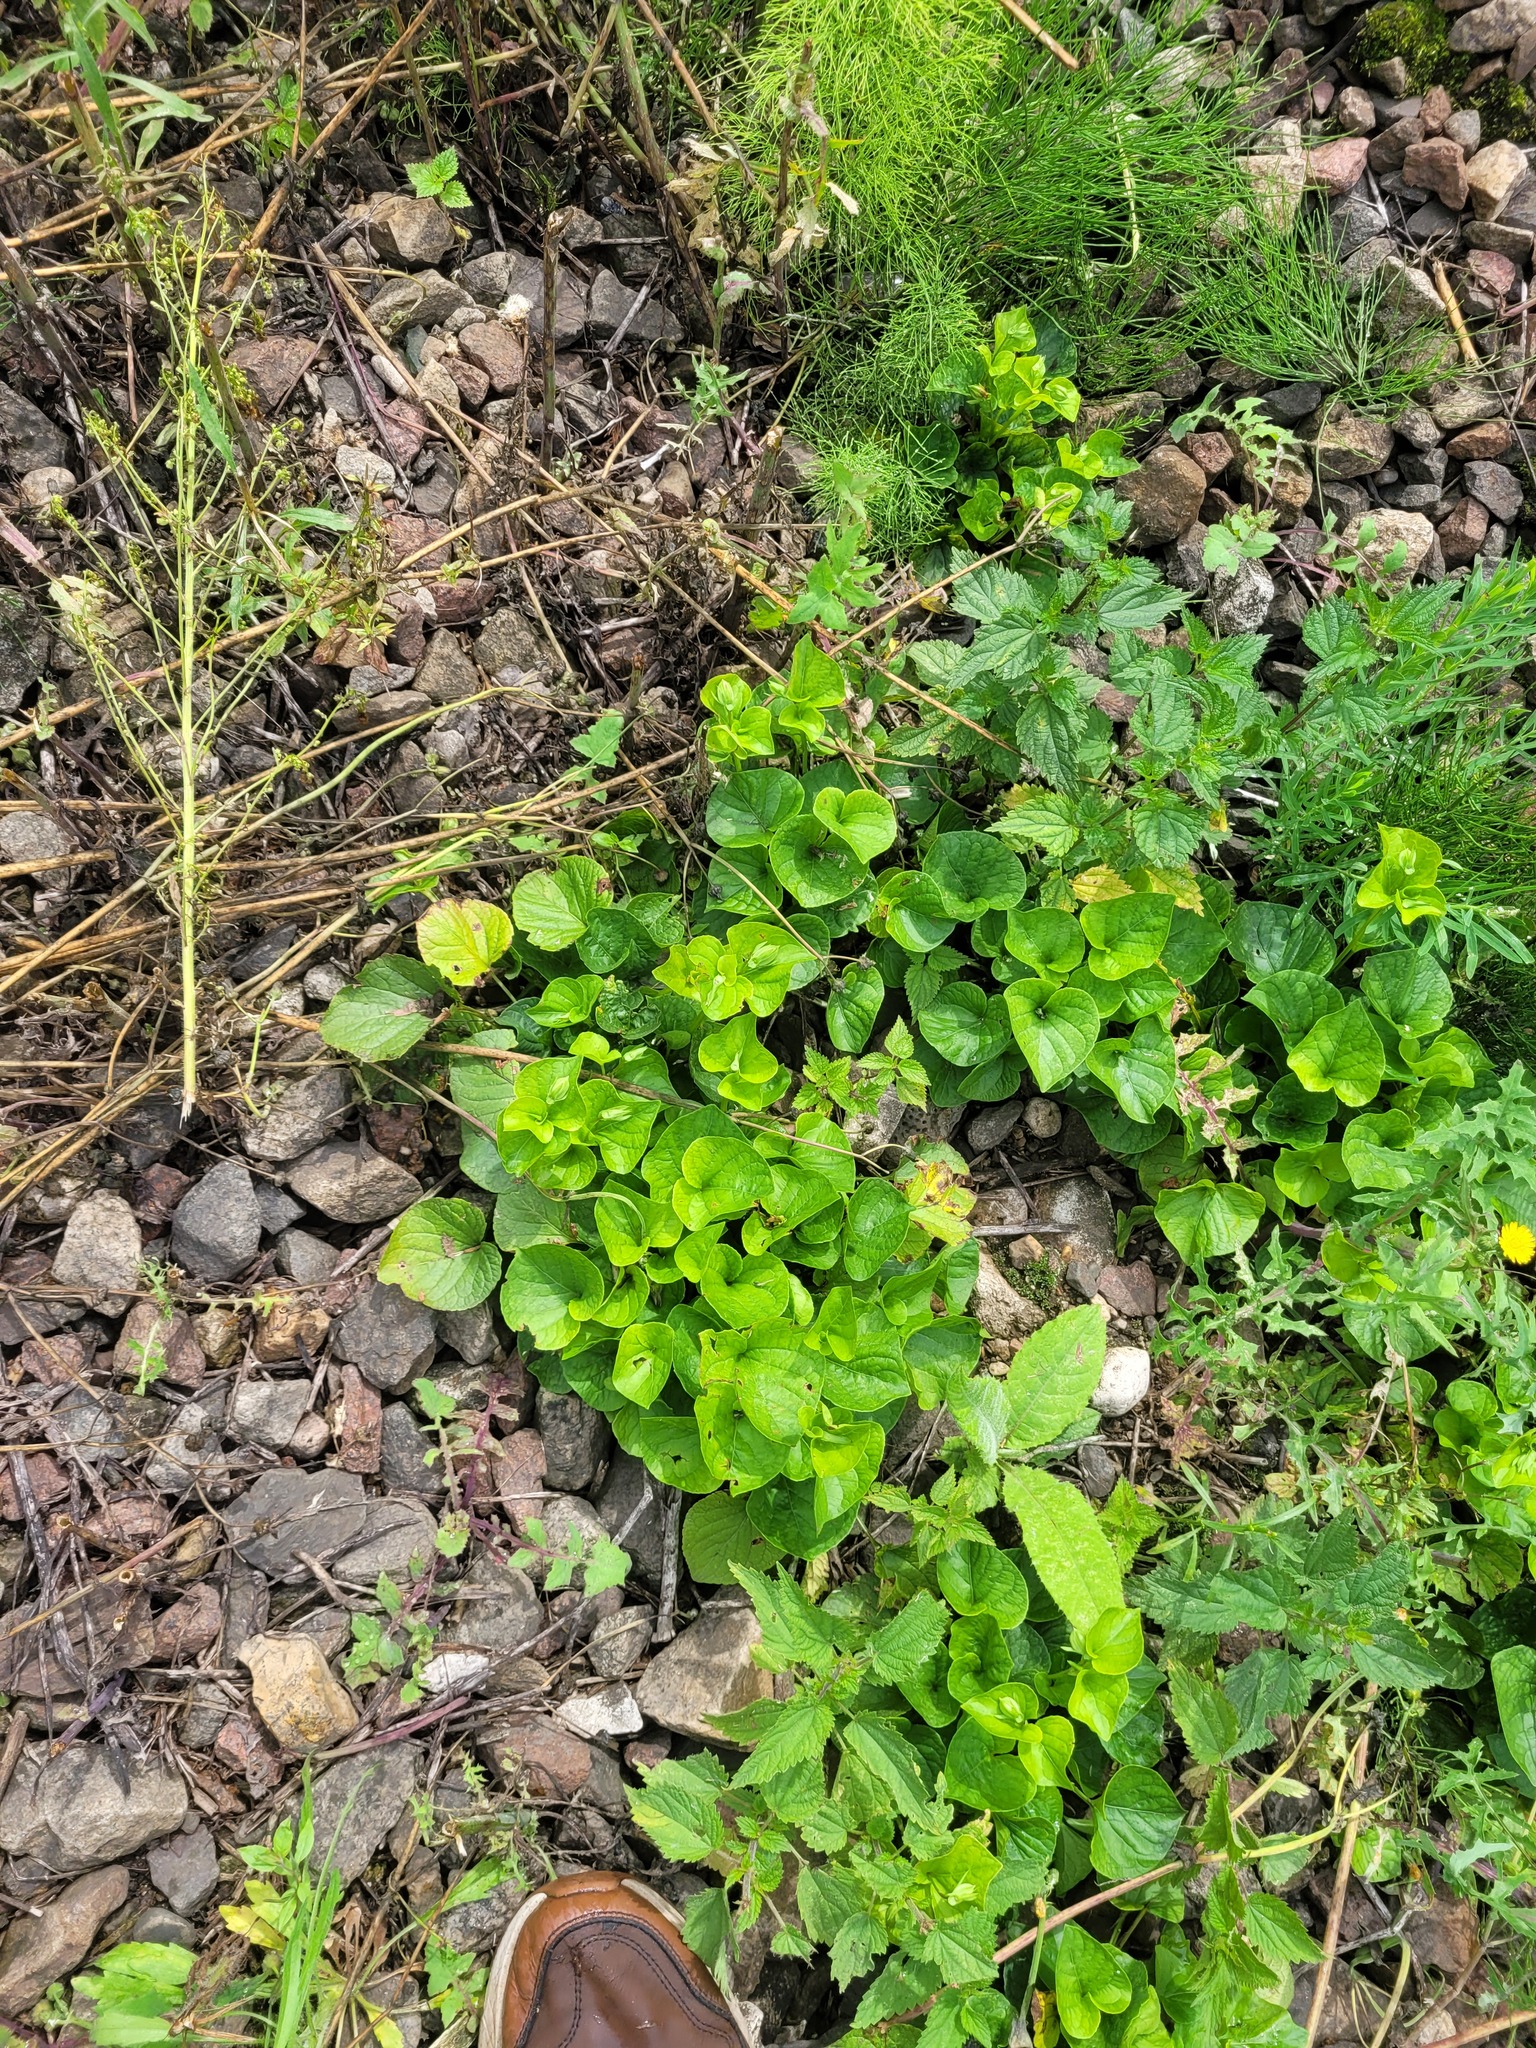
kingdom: Plantae
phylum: Tracheophyta
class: Magnoliopsida
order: Malpighiales
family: Violaceae
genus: Viola
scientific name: Viola mirabilis
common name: Wonder violet
